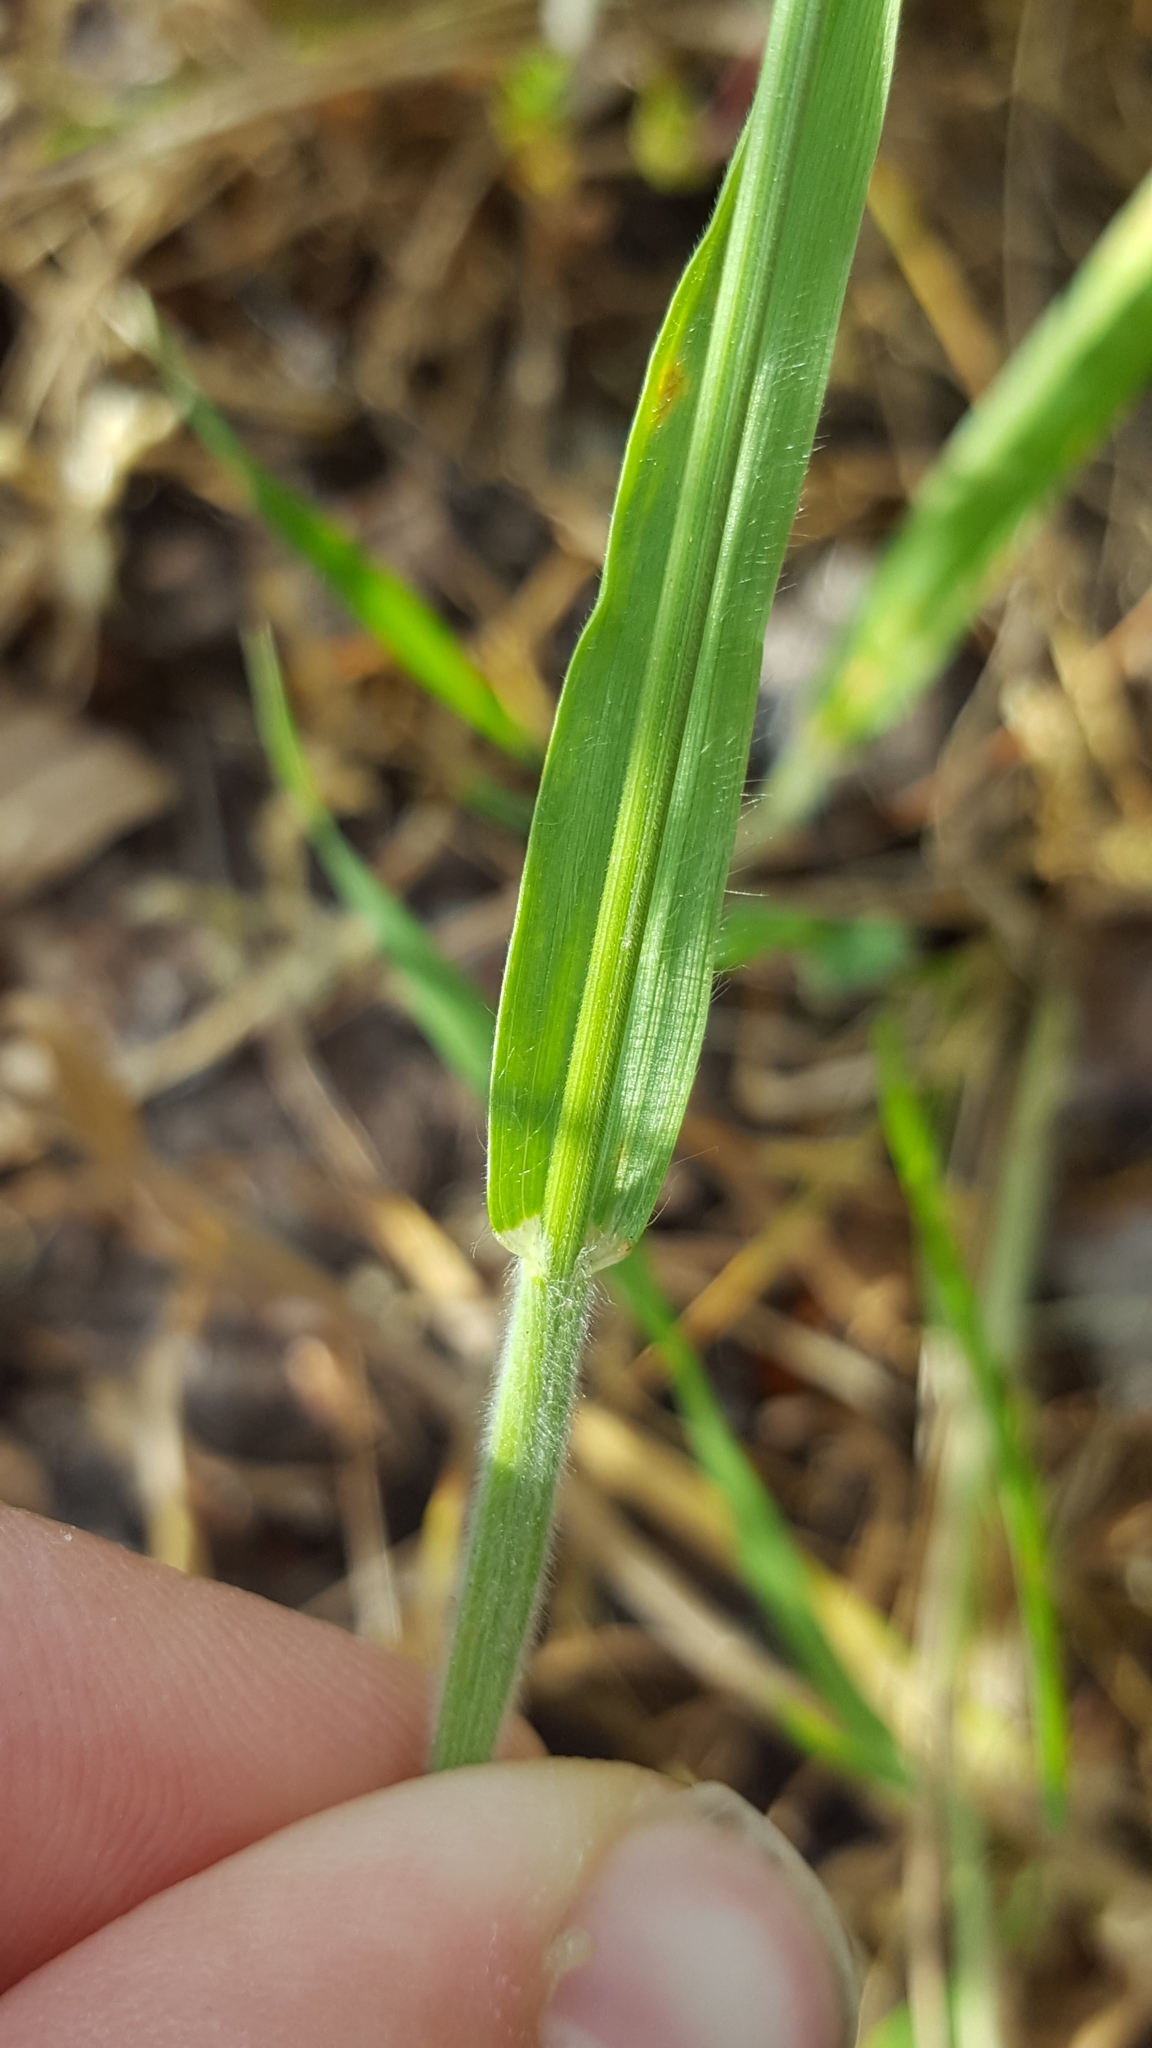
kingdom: Plantae
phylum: Tracheophyta
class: Liliopsida
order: Poales
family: Poaceae
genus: Bromus
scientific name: Bromus hordeaceus
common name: Soft brome
